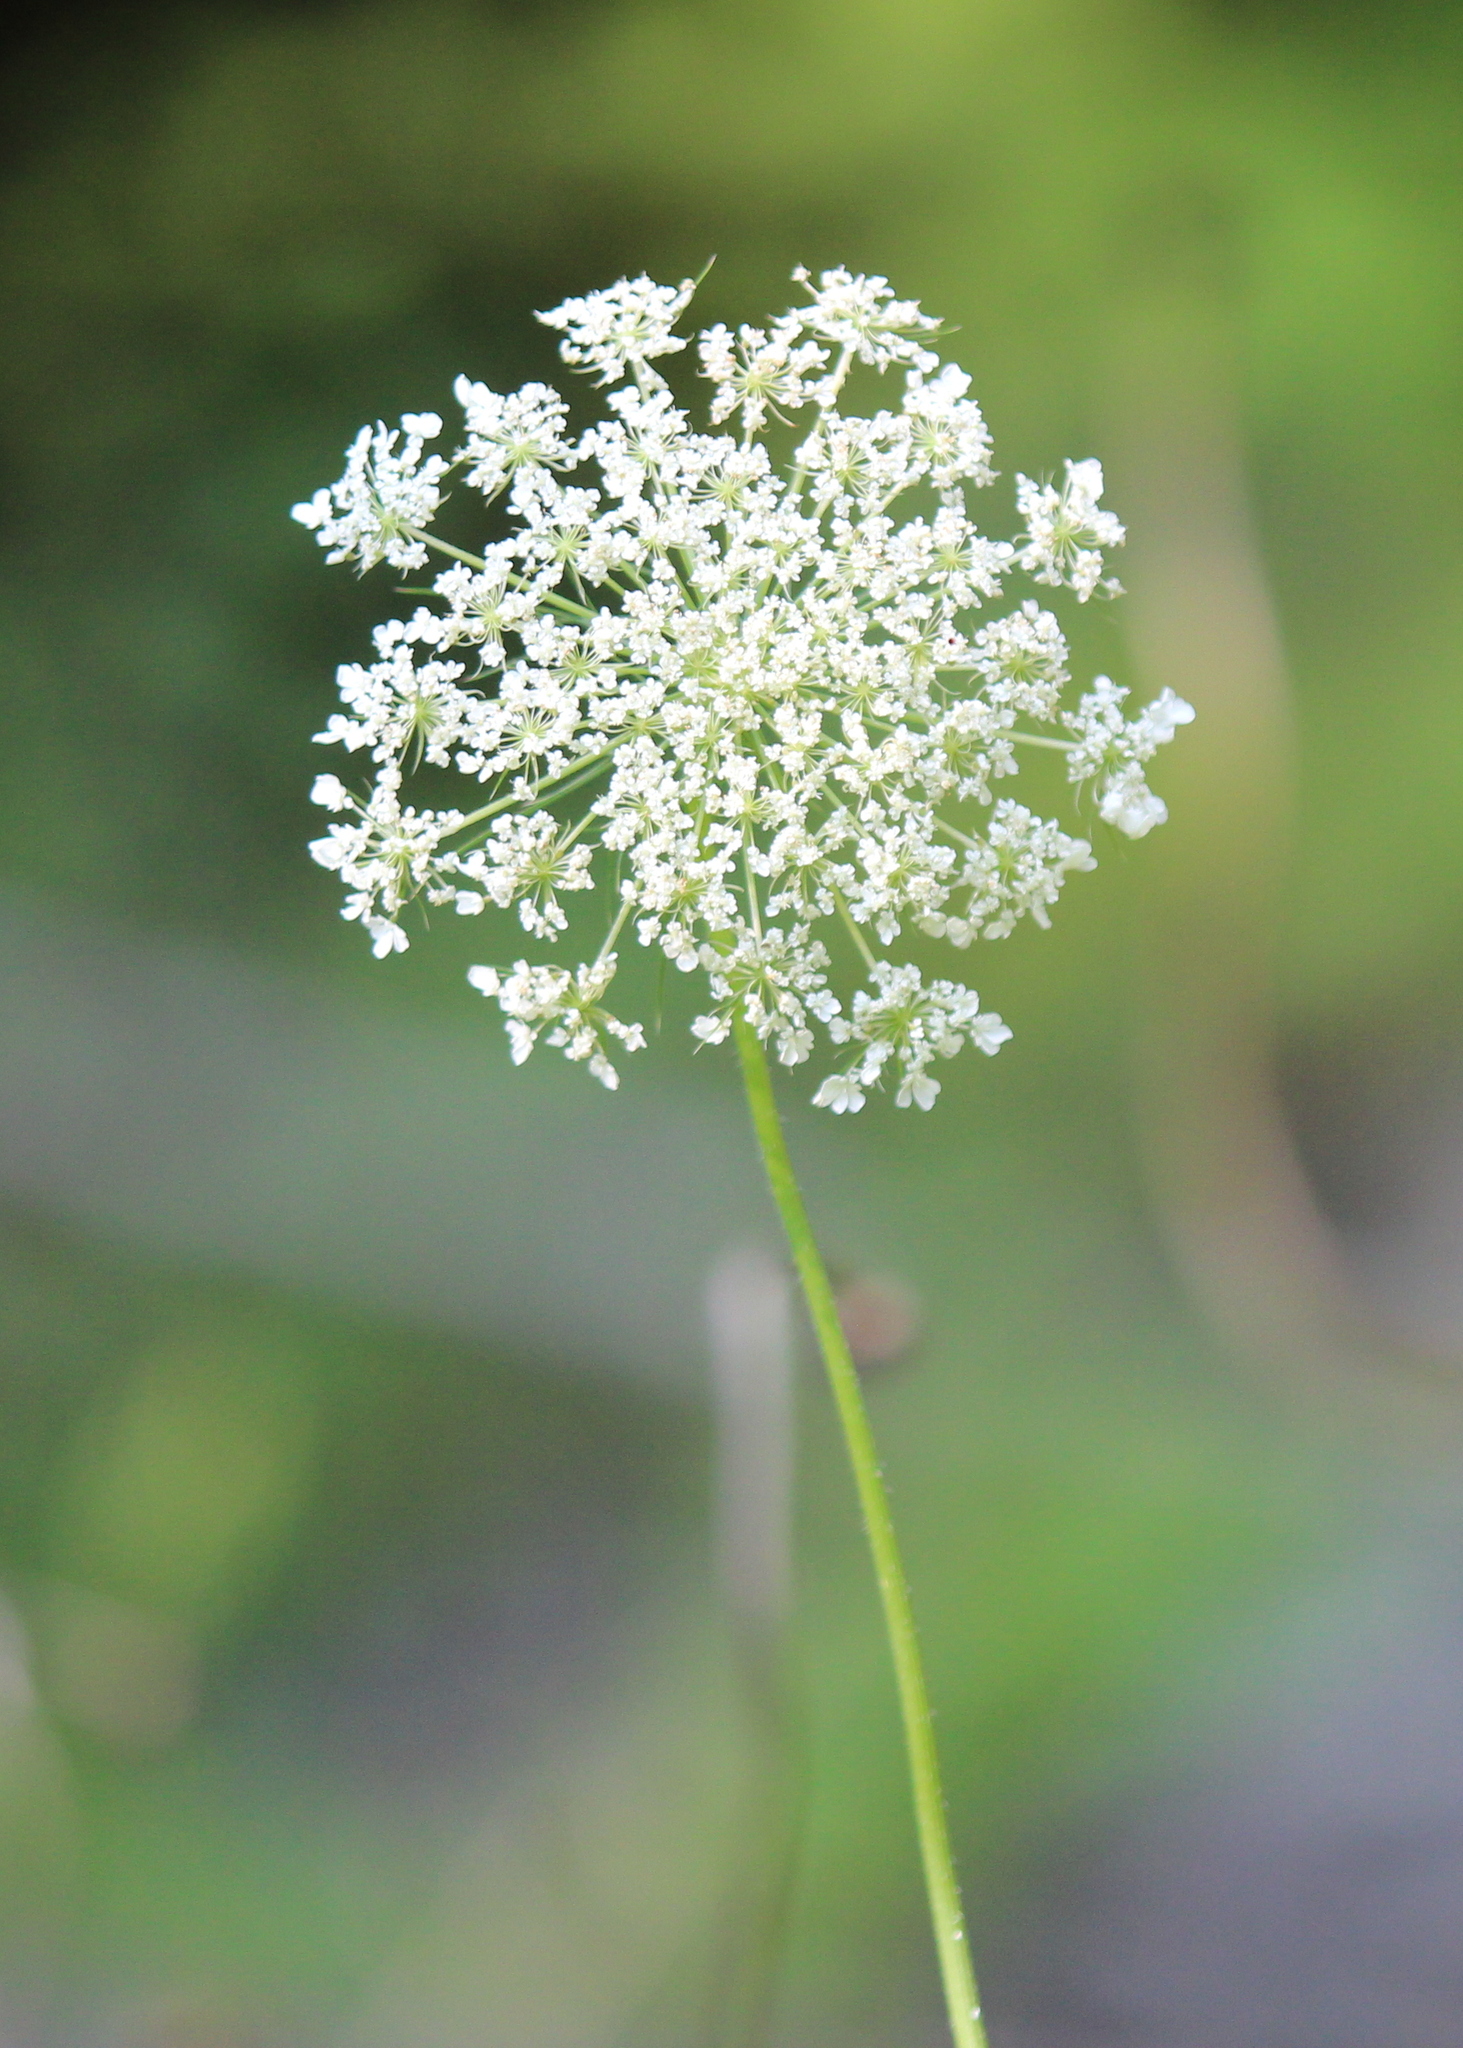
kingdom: Plantae
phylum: Tracheophyta
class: Magnoliopsida
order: Apiales
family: Apiaceae
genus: Daucus
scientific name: Daucus carota
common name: Wild carrot
